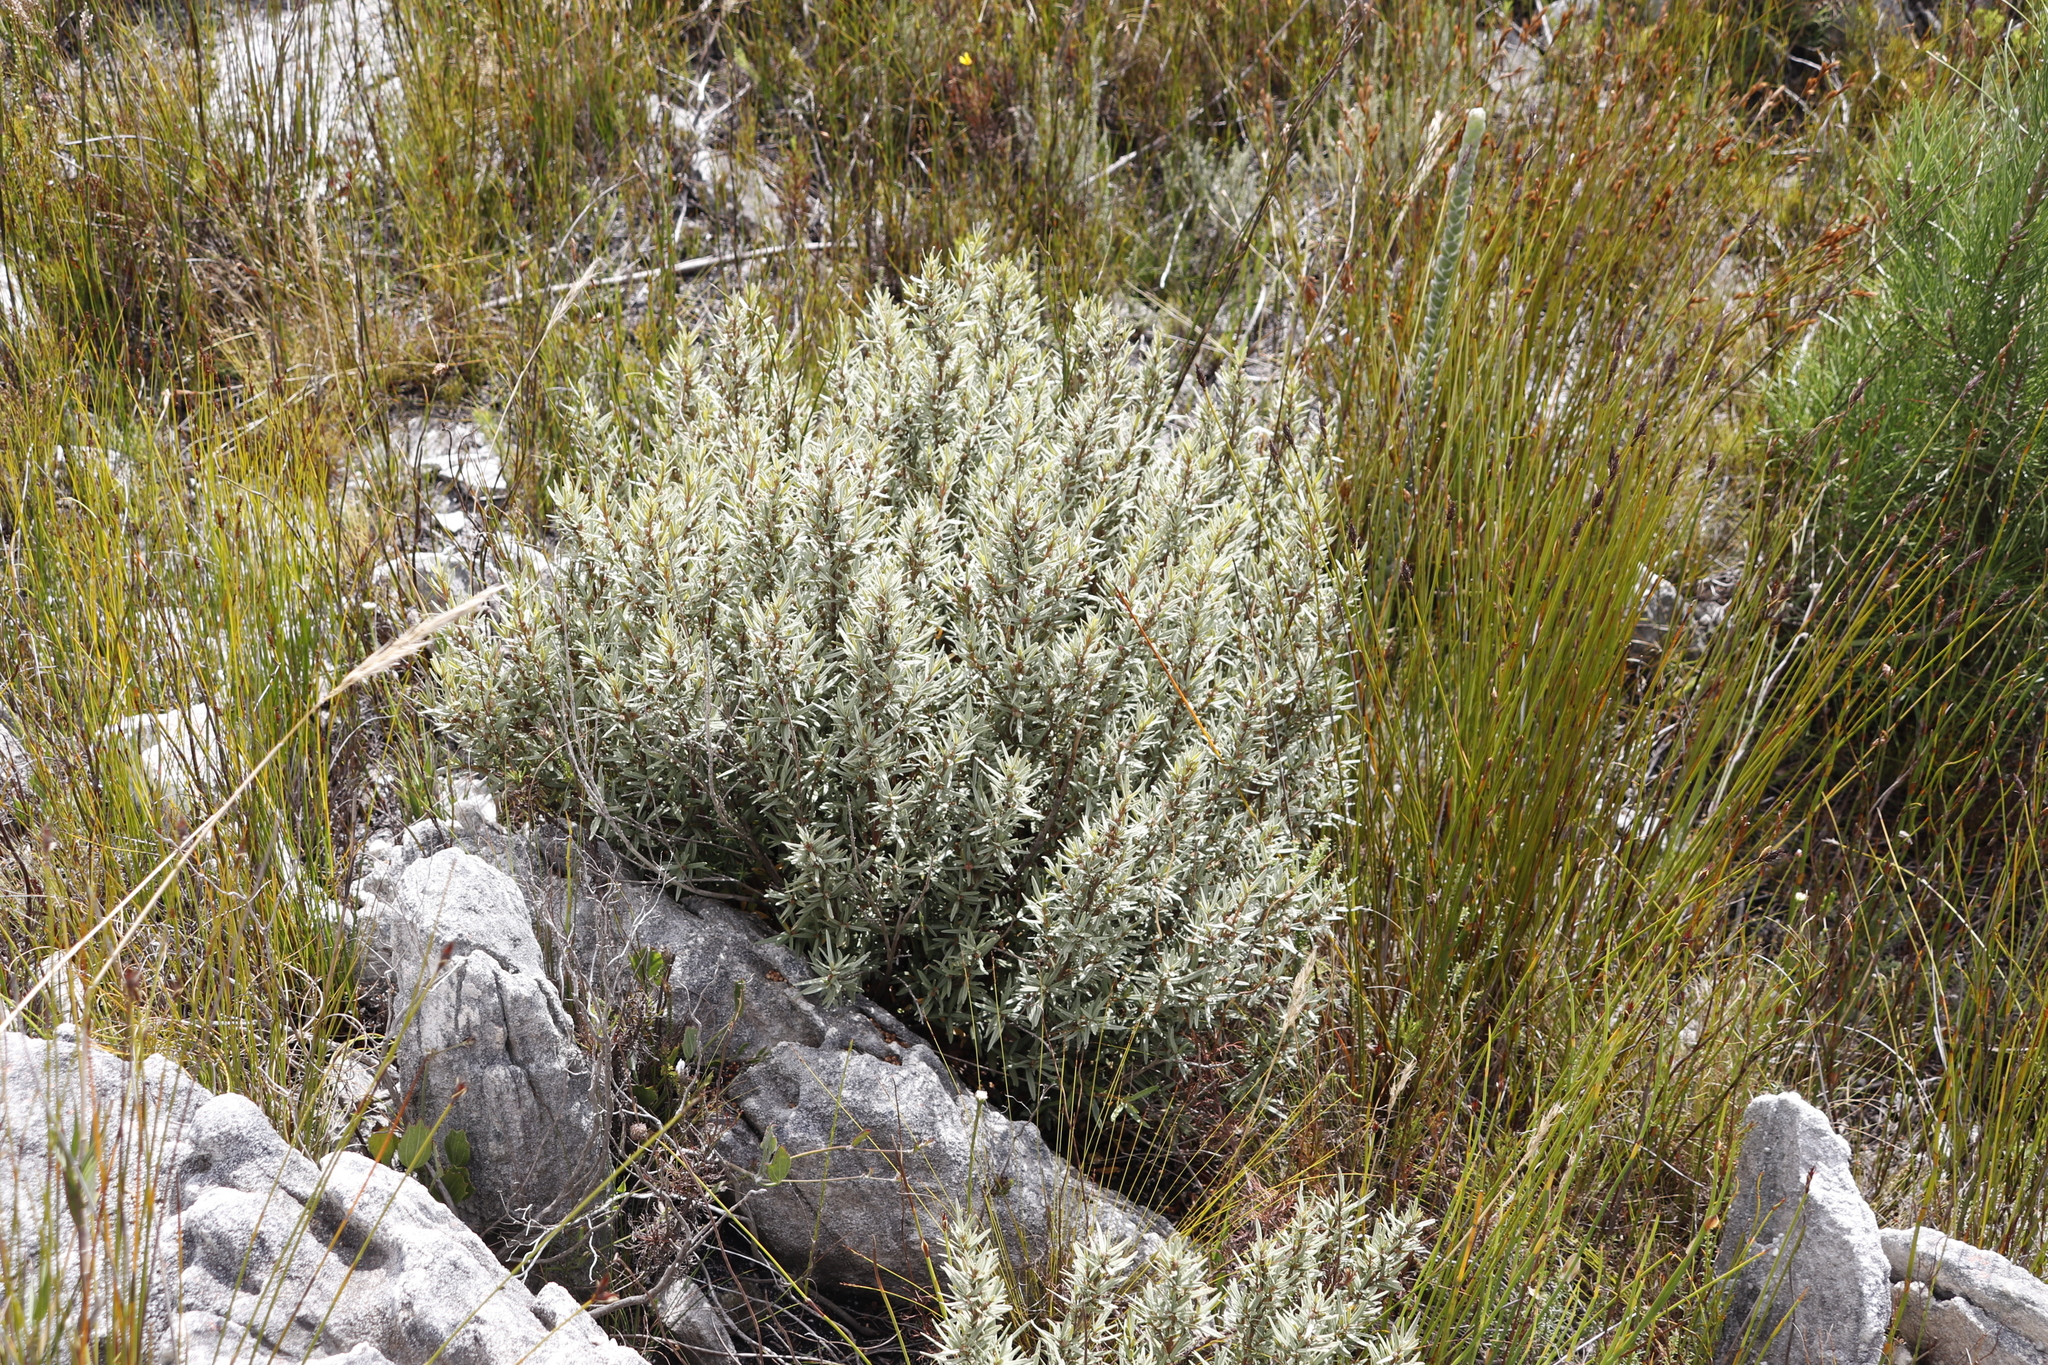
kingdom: Plantae
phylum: Tracheophyta
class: Magnoliopsida
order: Cornales
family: Grubbiaceae
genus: Grubbia
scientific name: Grubbia tomentosa
